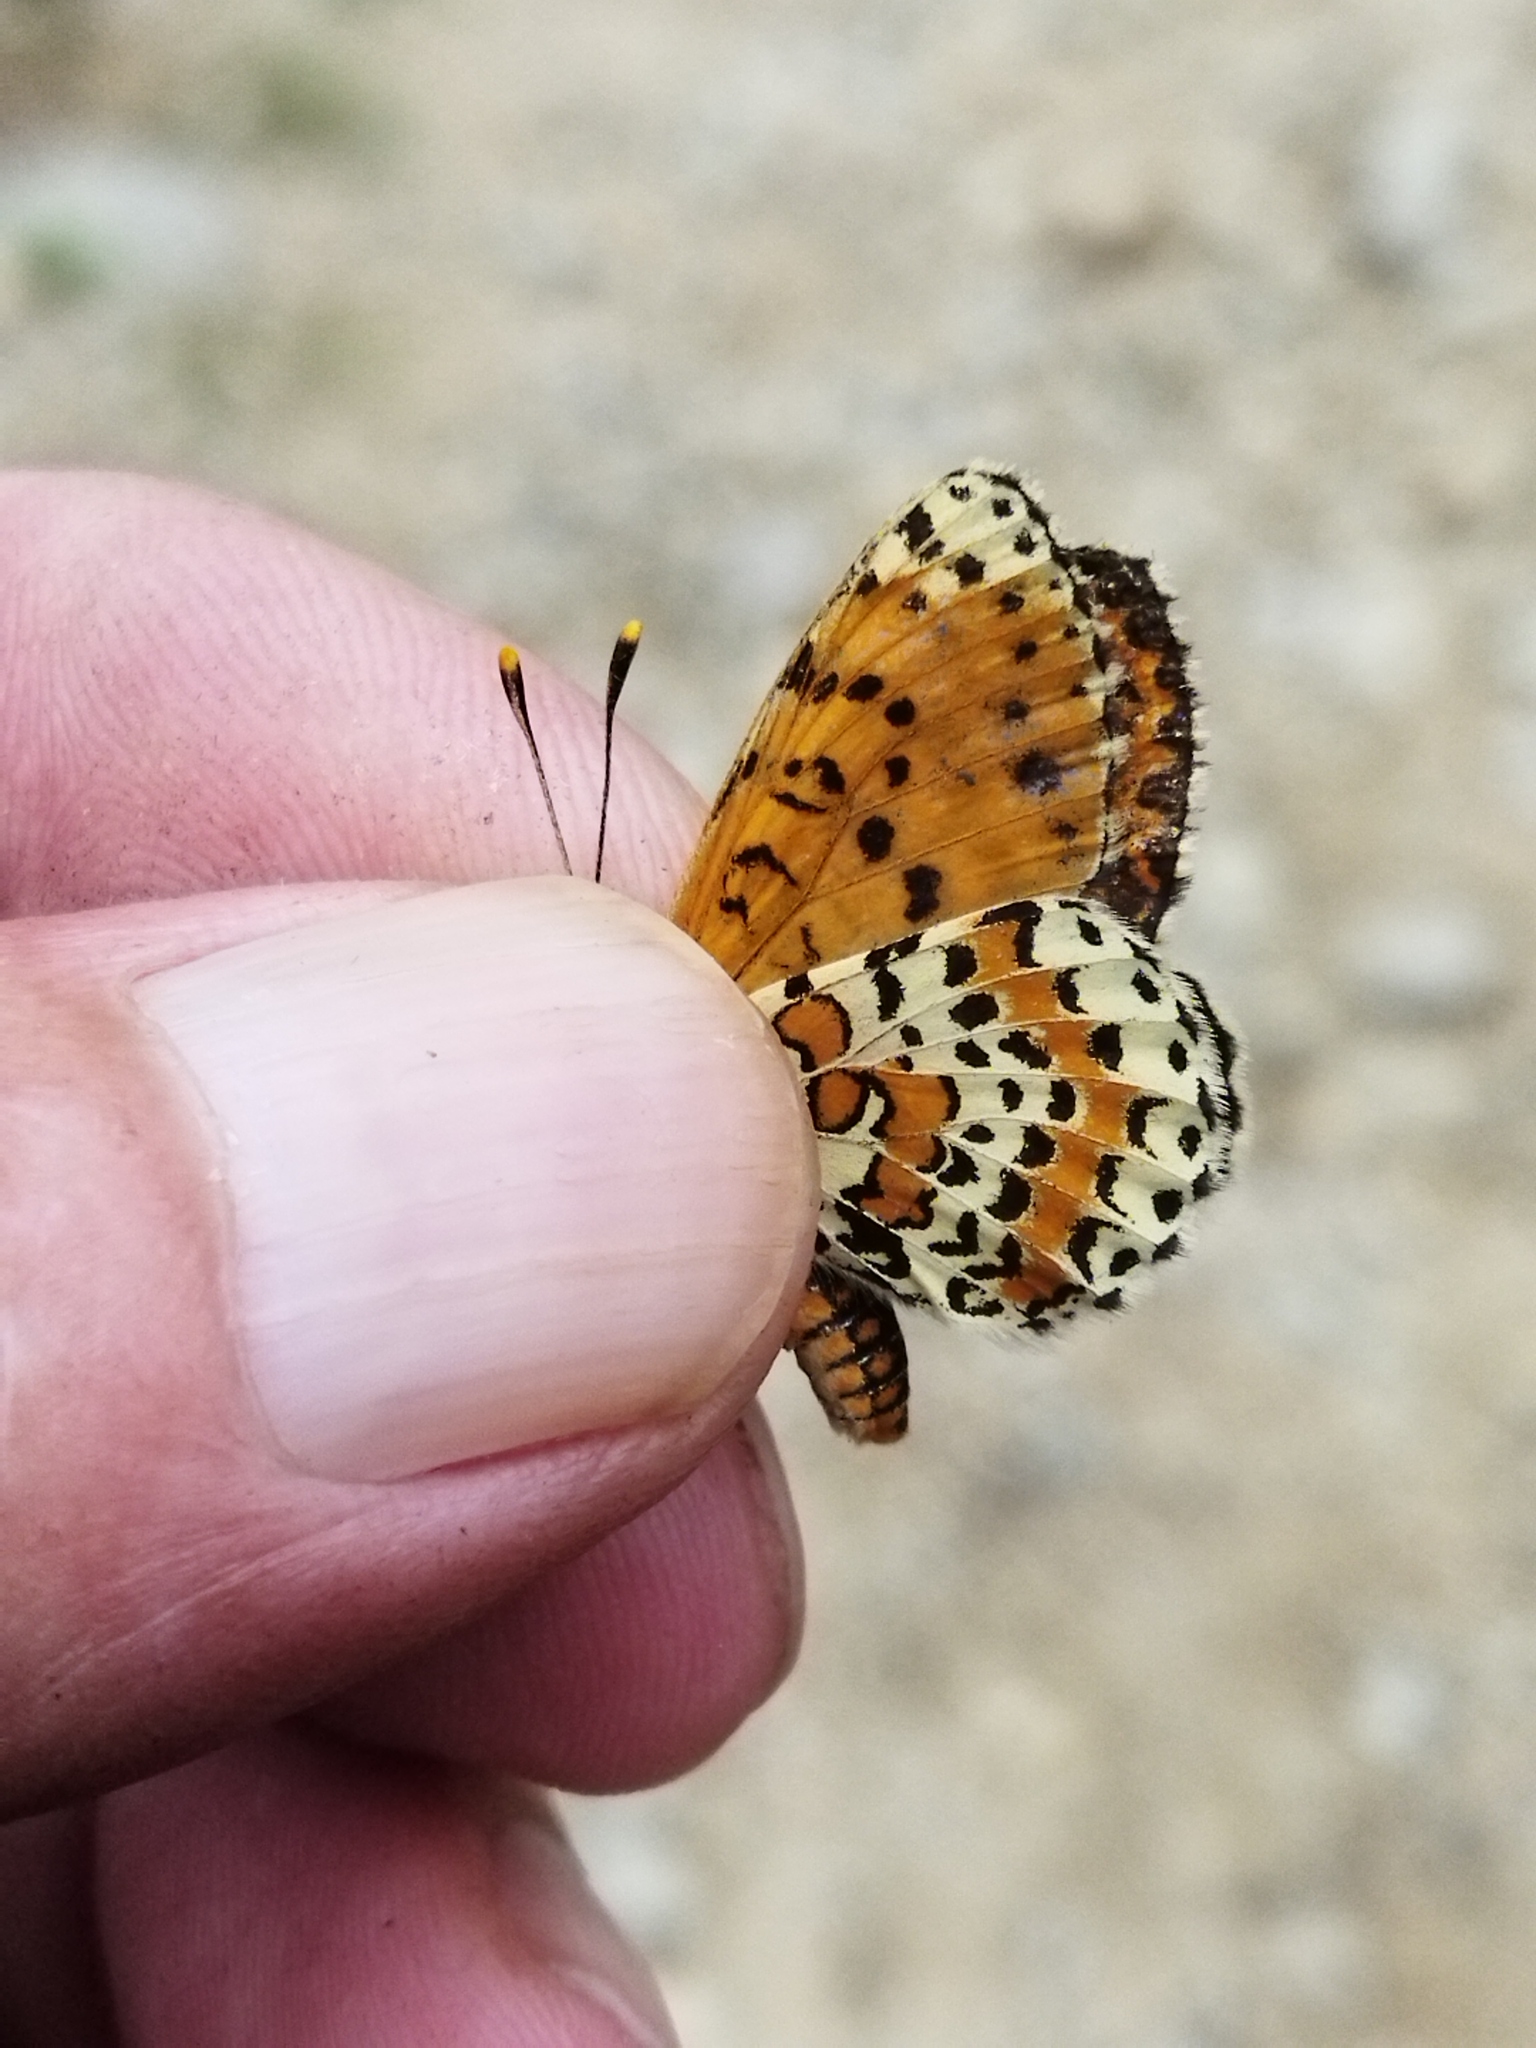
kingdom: Animalia
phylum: Arthropoda
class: Insecta
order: Lepidoptera
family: Nymphalidae
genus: Melitaea
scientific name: Melitaea didyma
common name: Spotted fritillary
